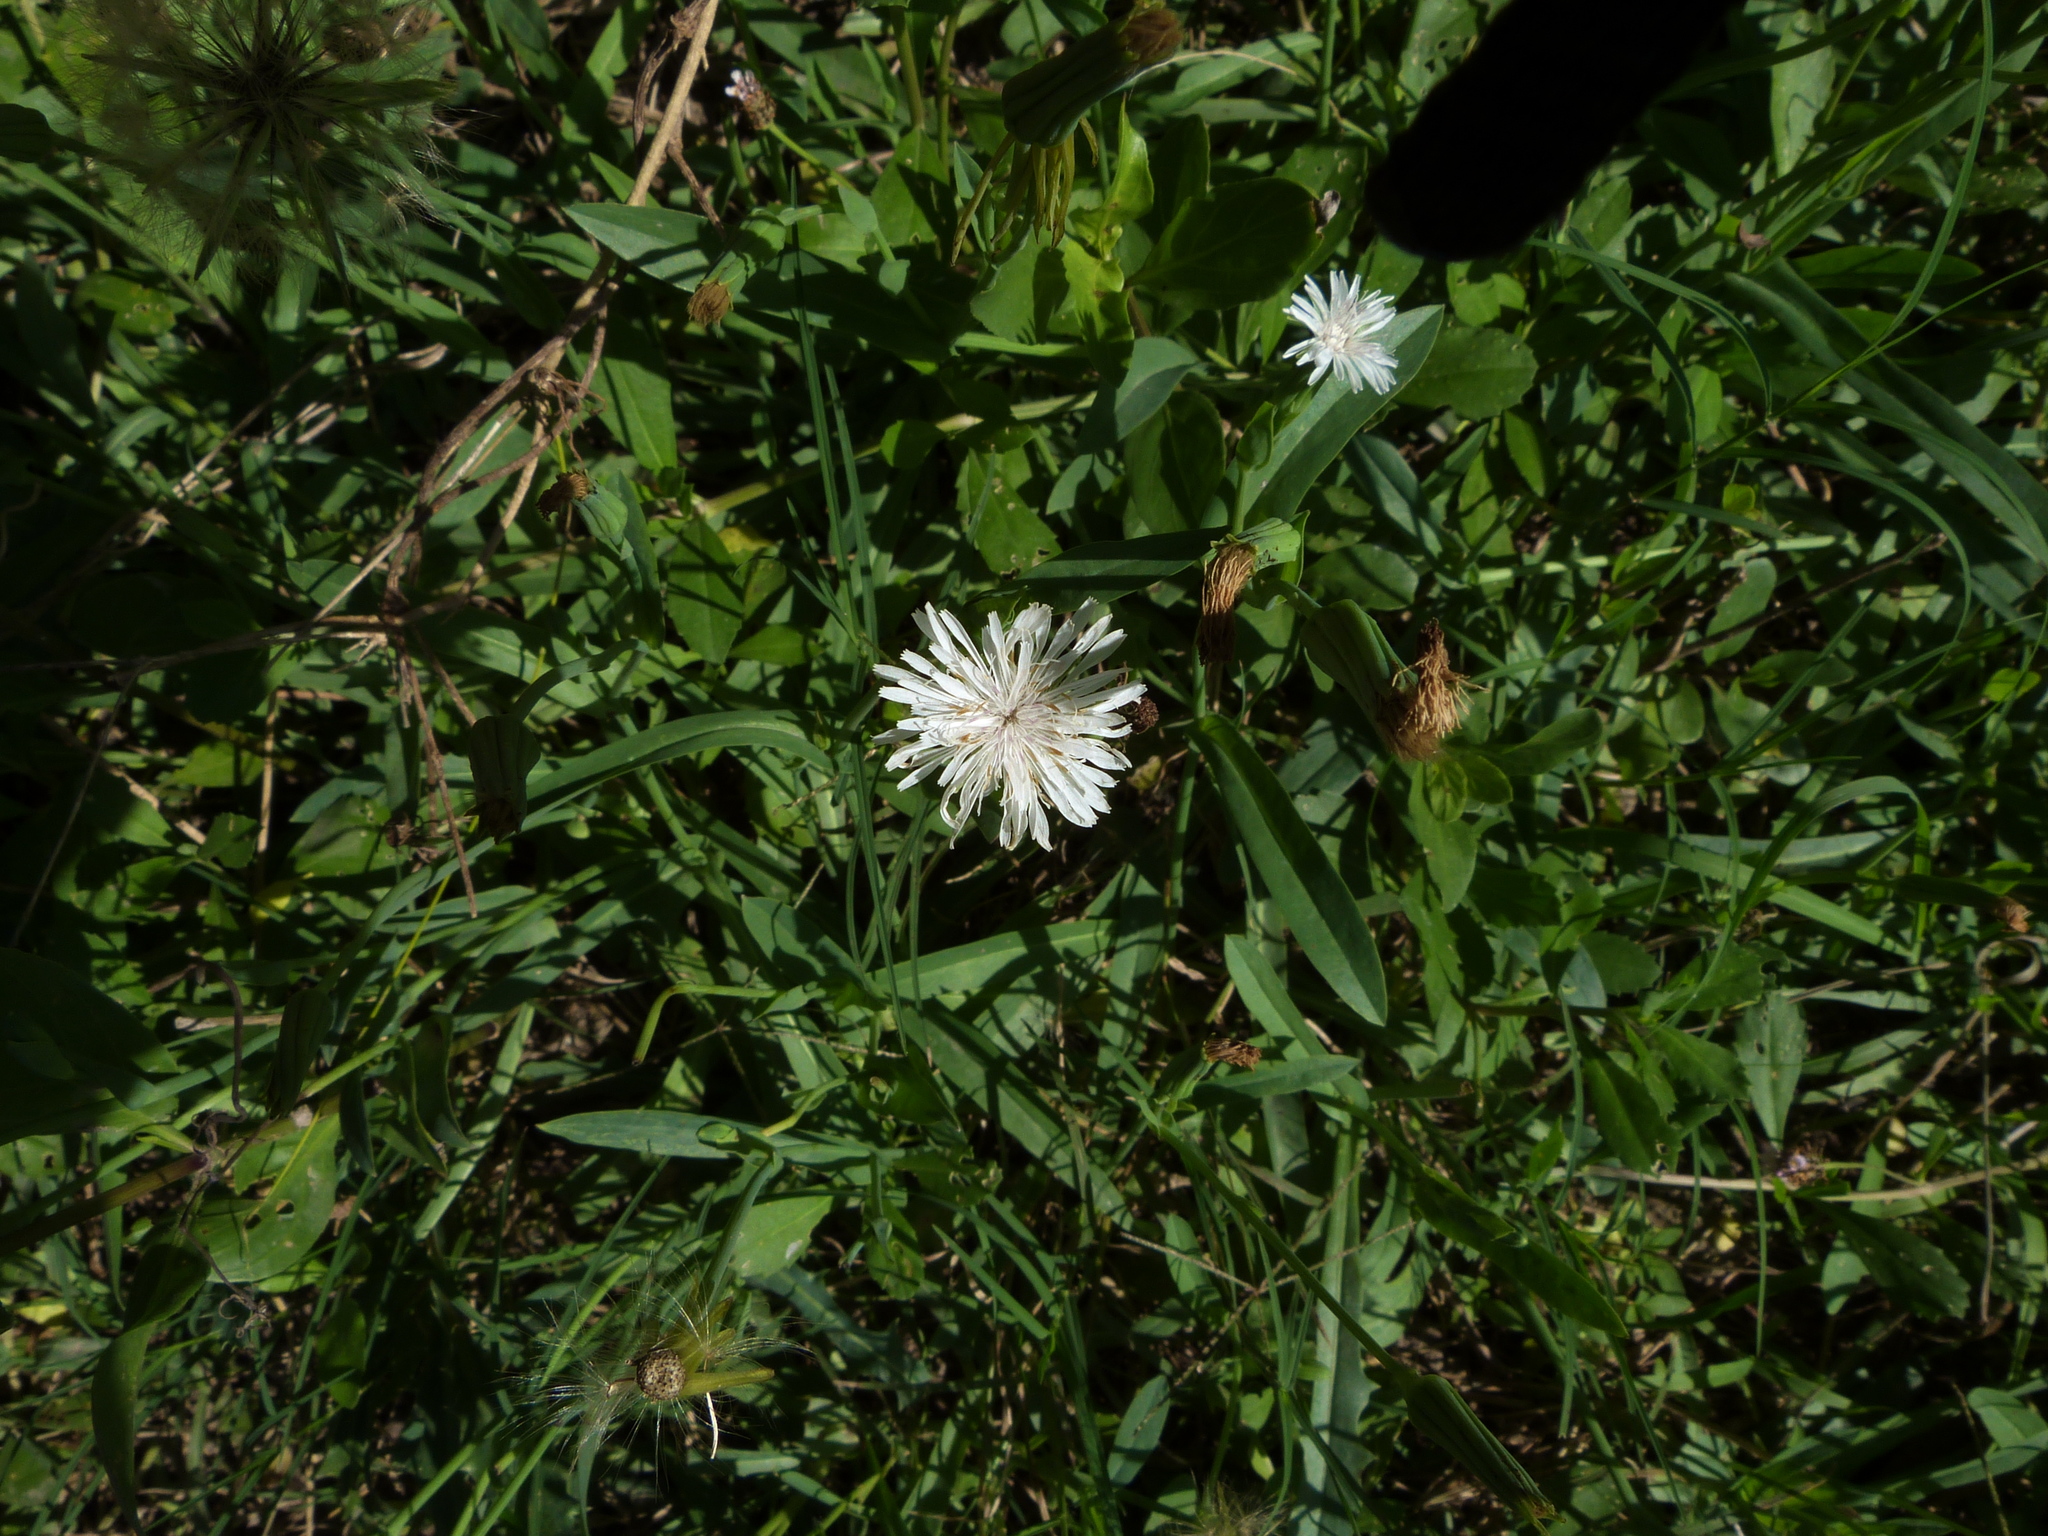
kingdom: Plantae
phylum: Tracheophyta
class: Magnoliopsida
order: Asterales
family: Asteraceae
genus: Picrosia
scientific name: Picrosia longifolia
